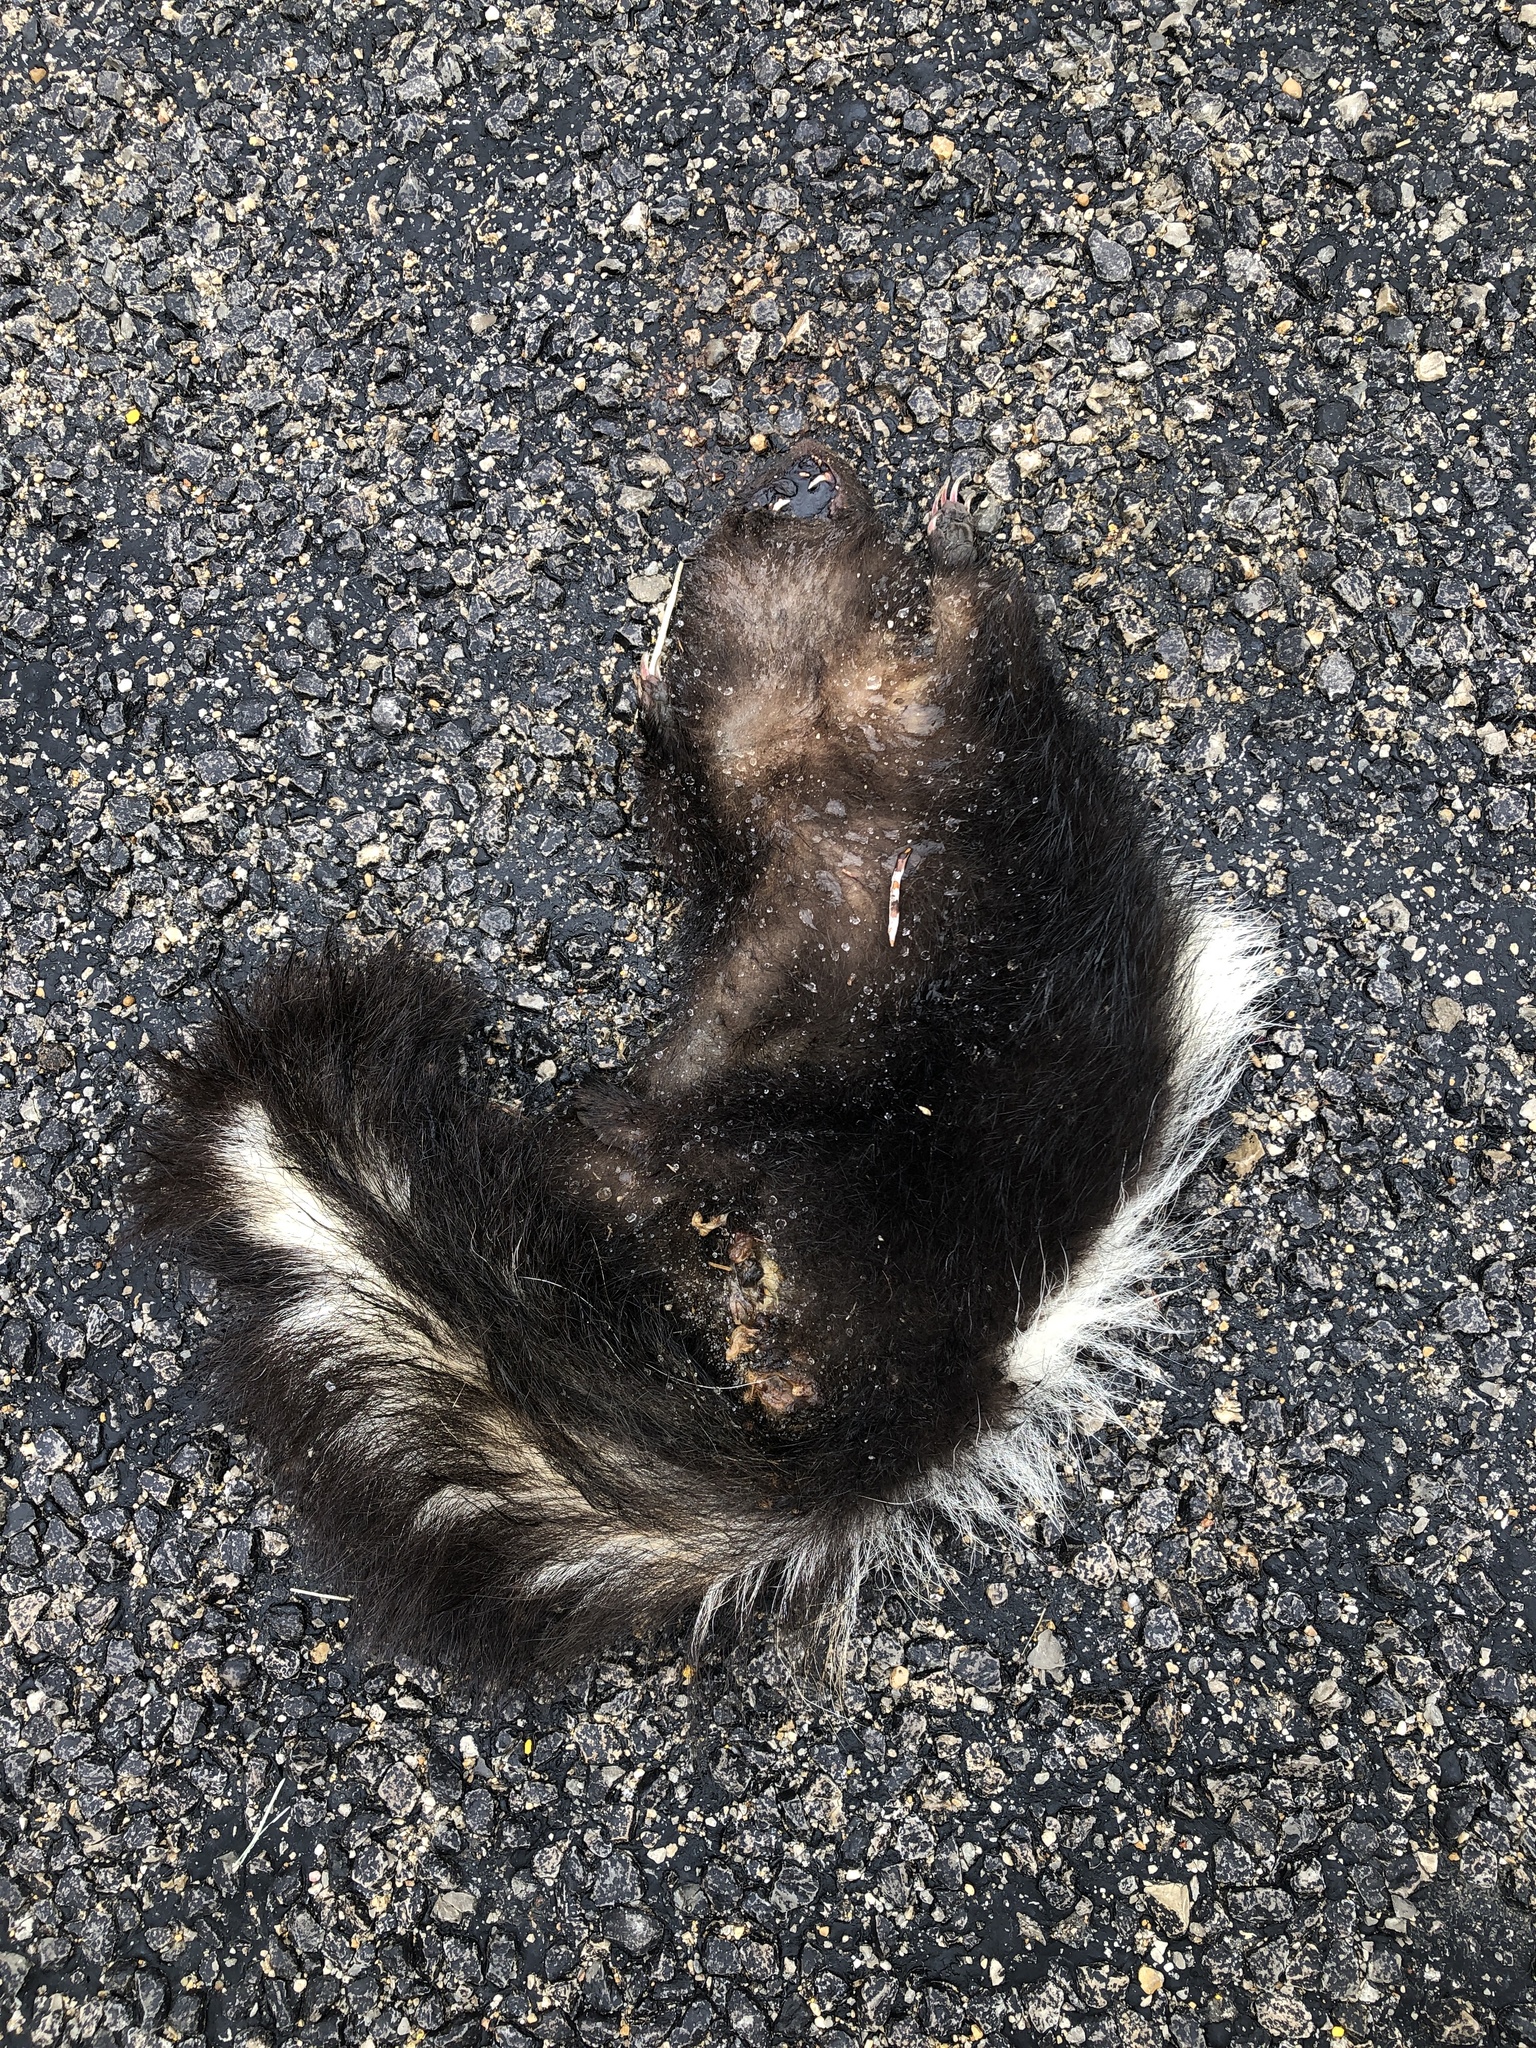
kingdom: Animalia
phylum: Chordata
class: Mammalia
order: Carnivora
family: Mephitidae
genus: Mephitis
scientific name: Mephitis mephitis
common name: Striped skunk
